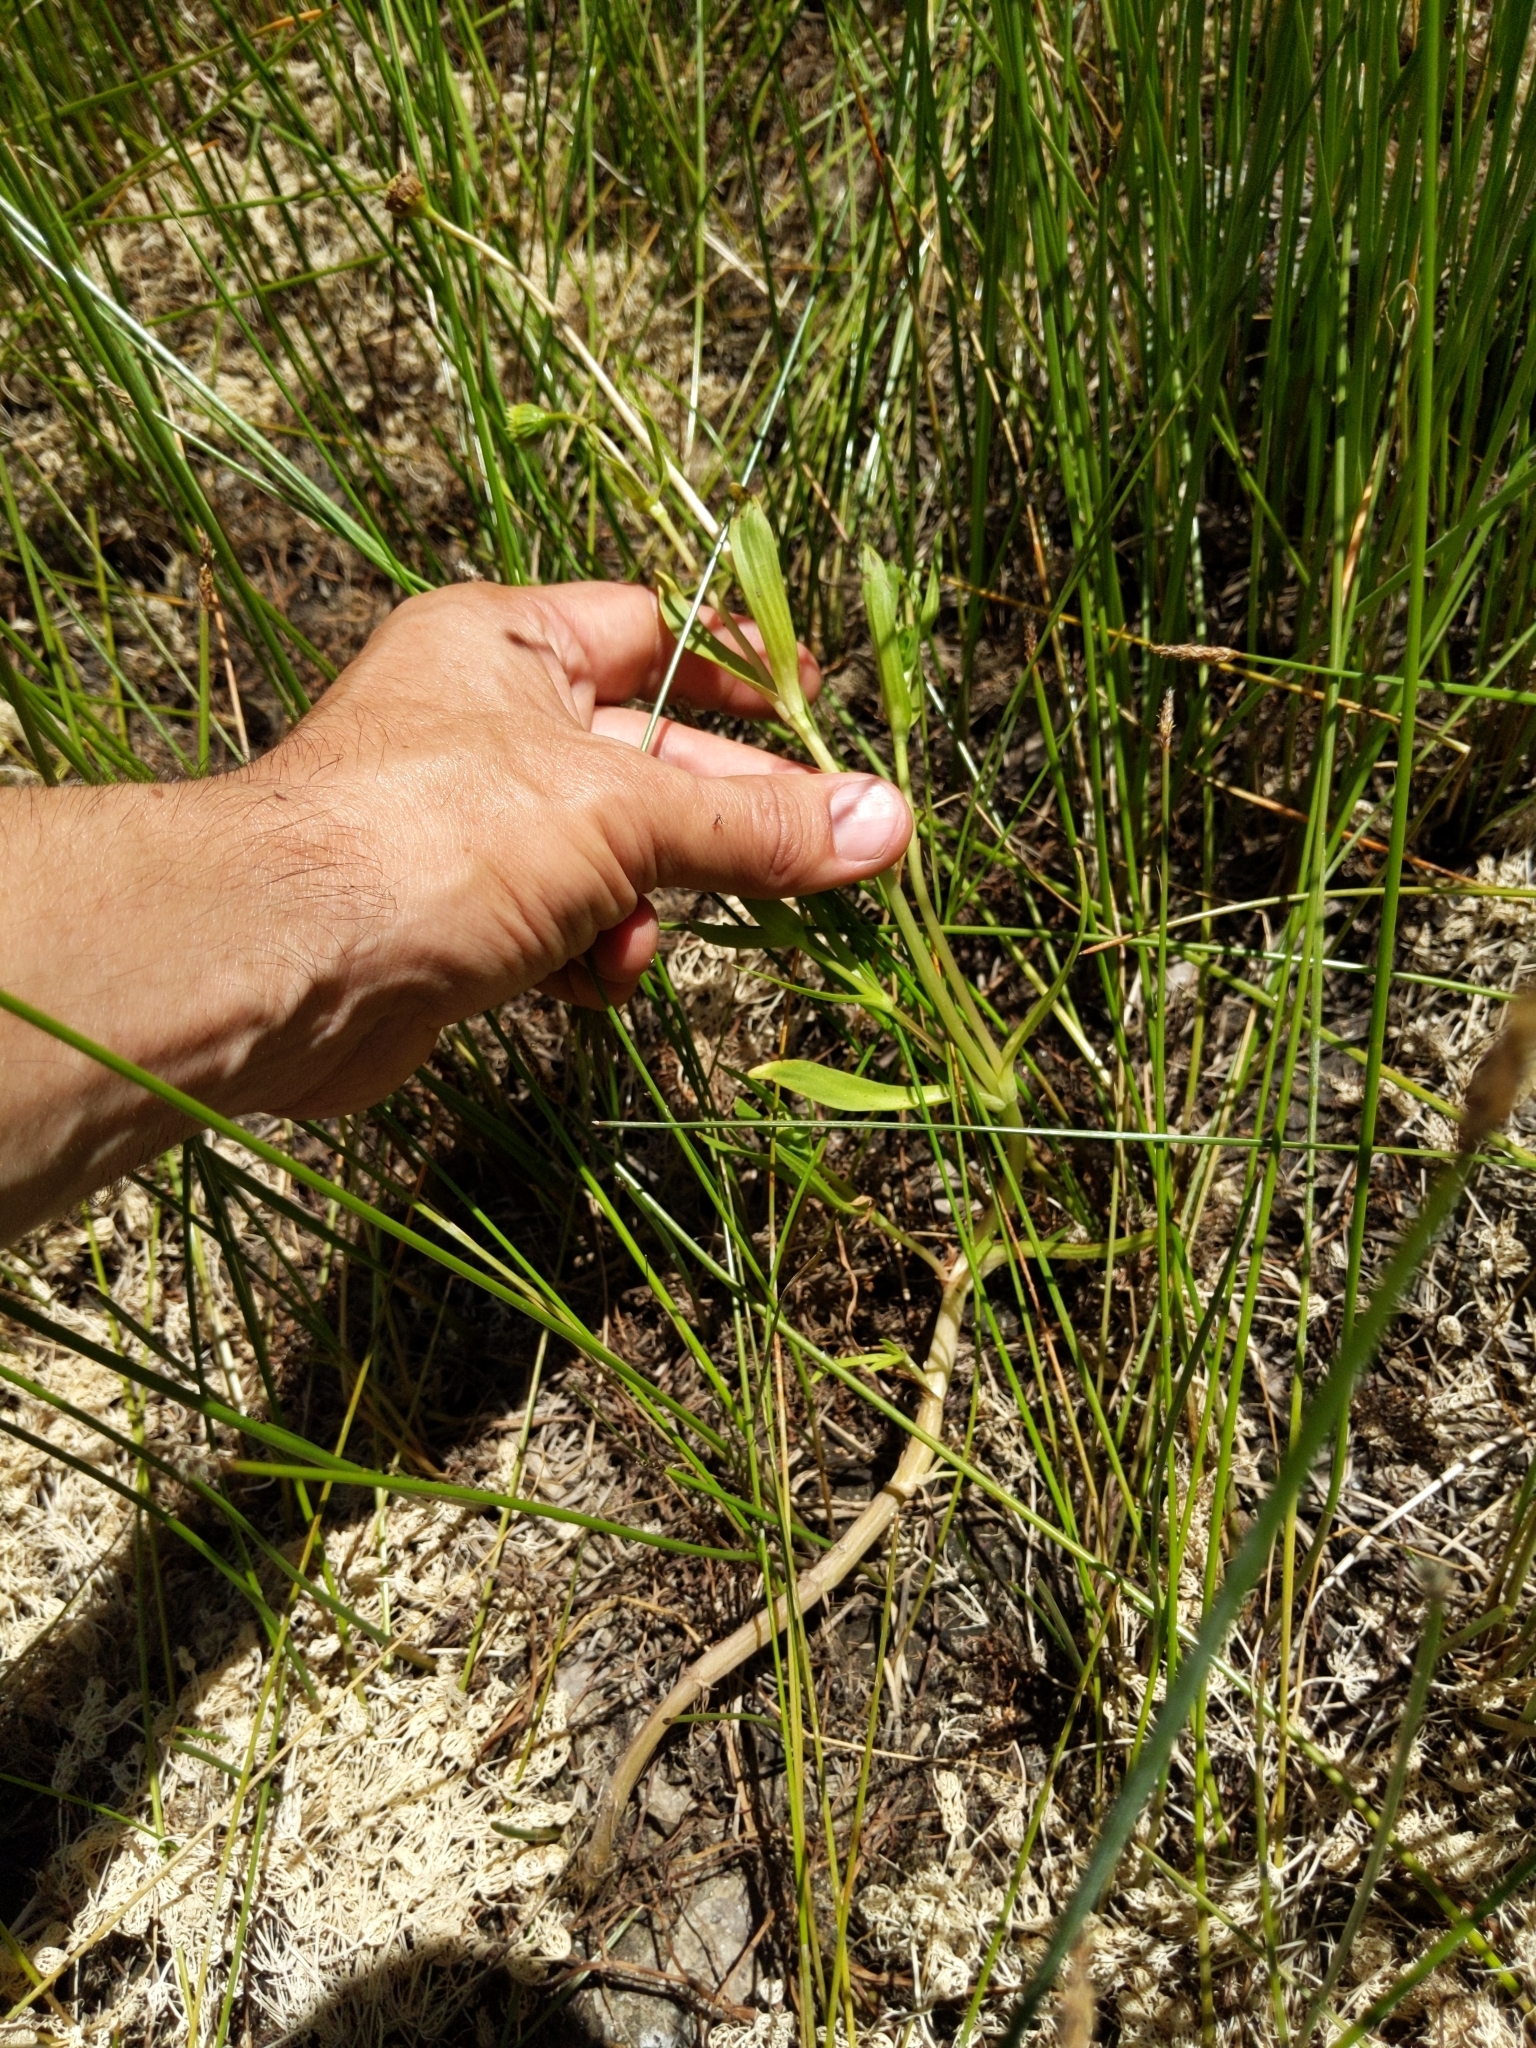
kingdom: Plantae
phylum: Tracheophyta
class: Magnoliopsida
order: Asterales
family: Asteraceae
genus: Lasthenia
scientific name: Lasthenia glaberrima
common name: Smooth goldfields
